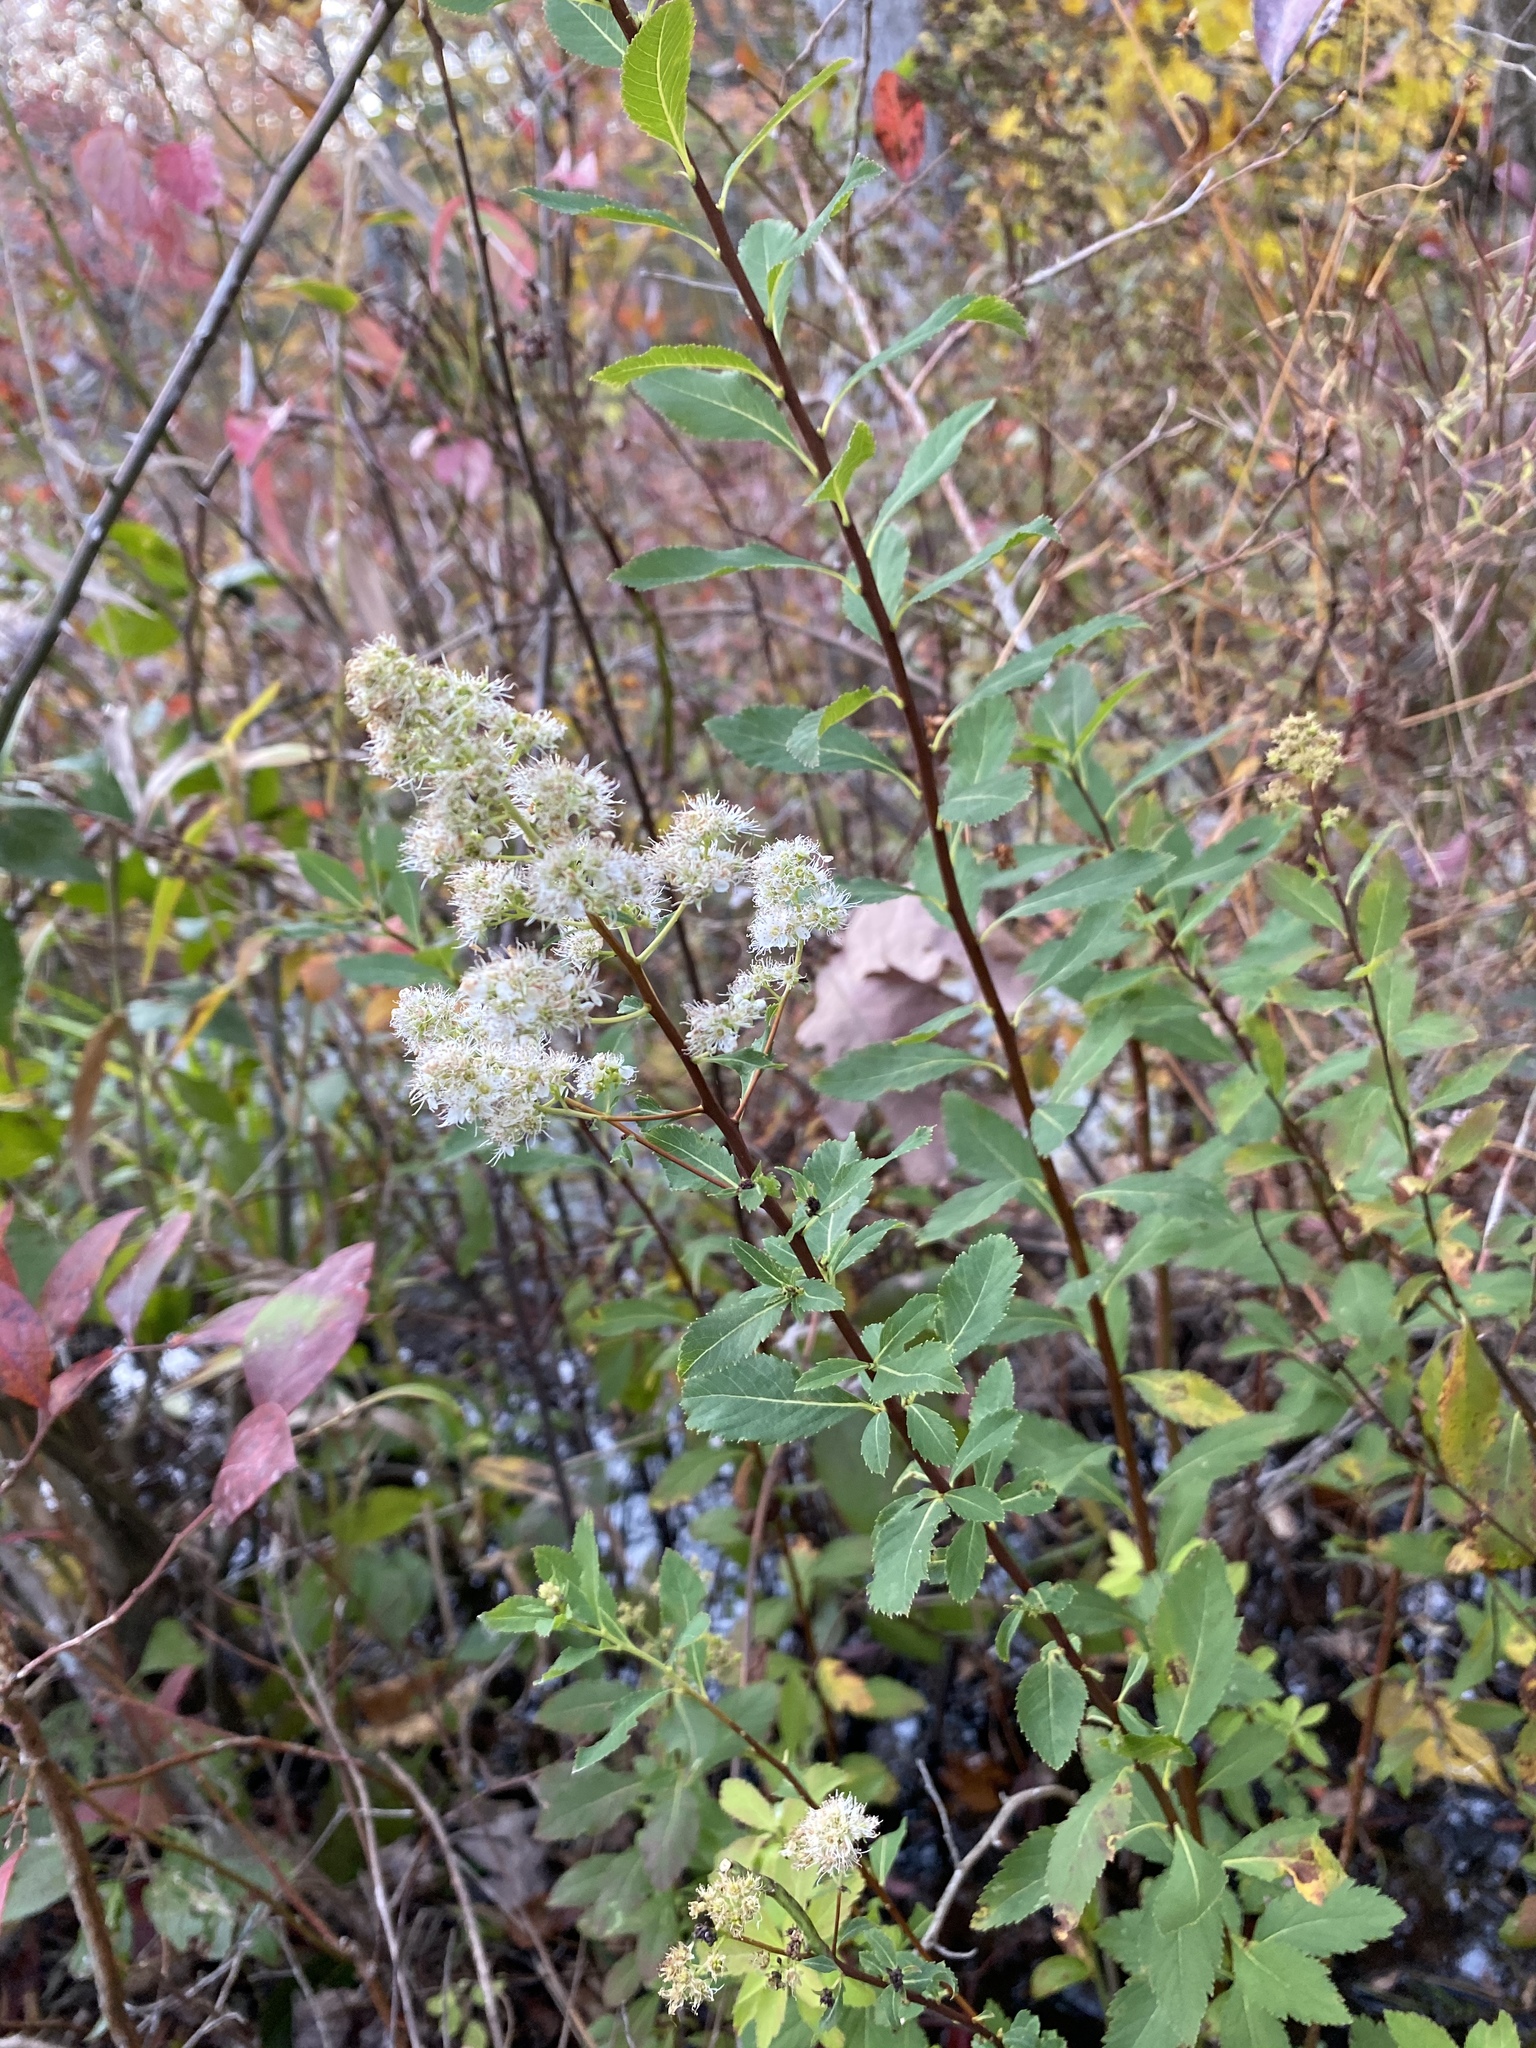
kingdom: Plantae
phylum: Tracheophyta
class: Magnoliopsida
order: Rosales
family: Rosaceae
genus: Spiraea
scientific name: Spiraea alba
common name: Pale bridewort
